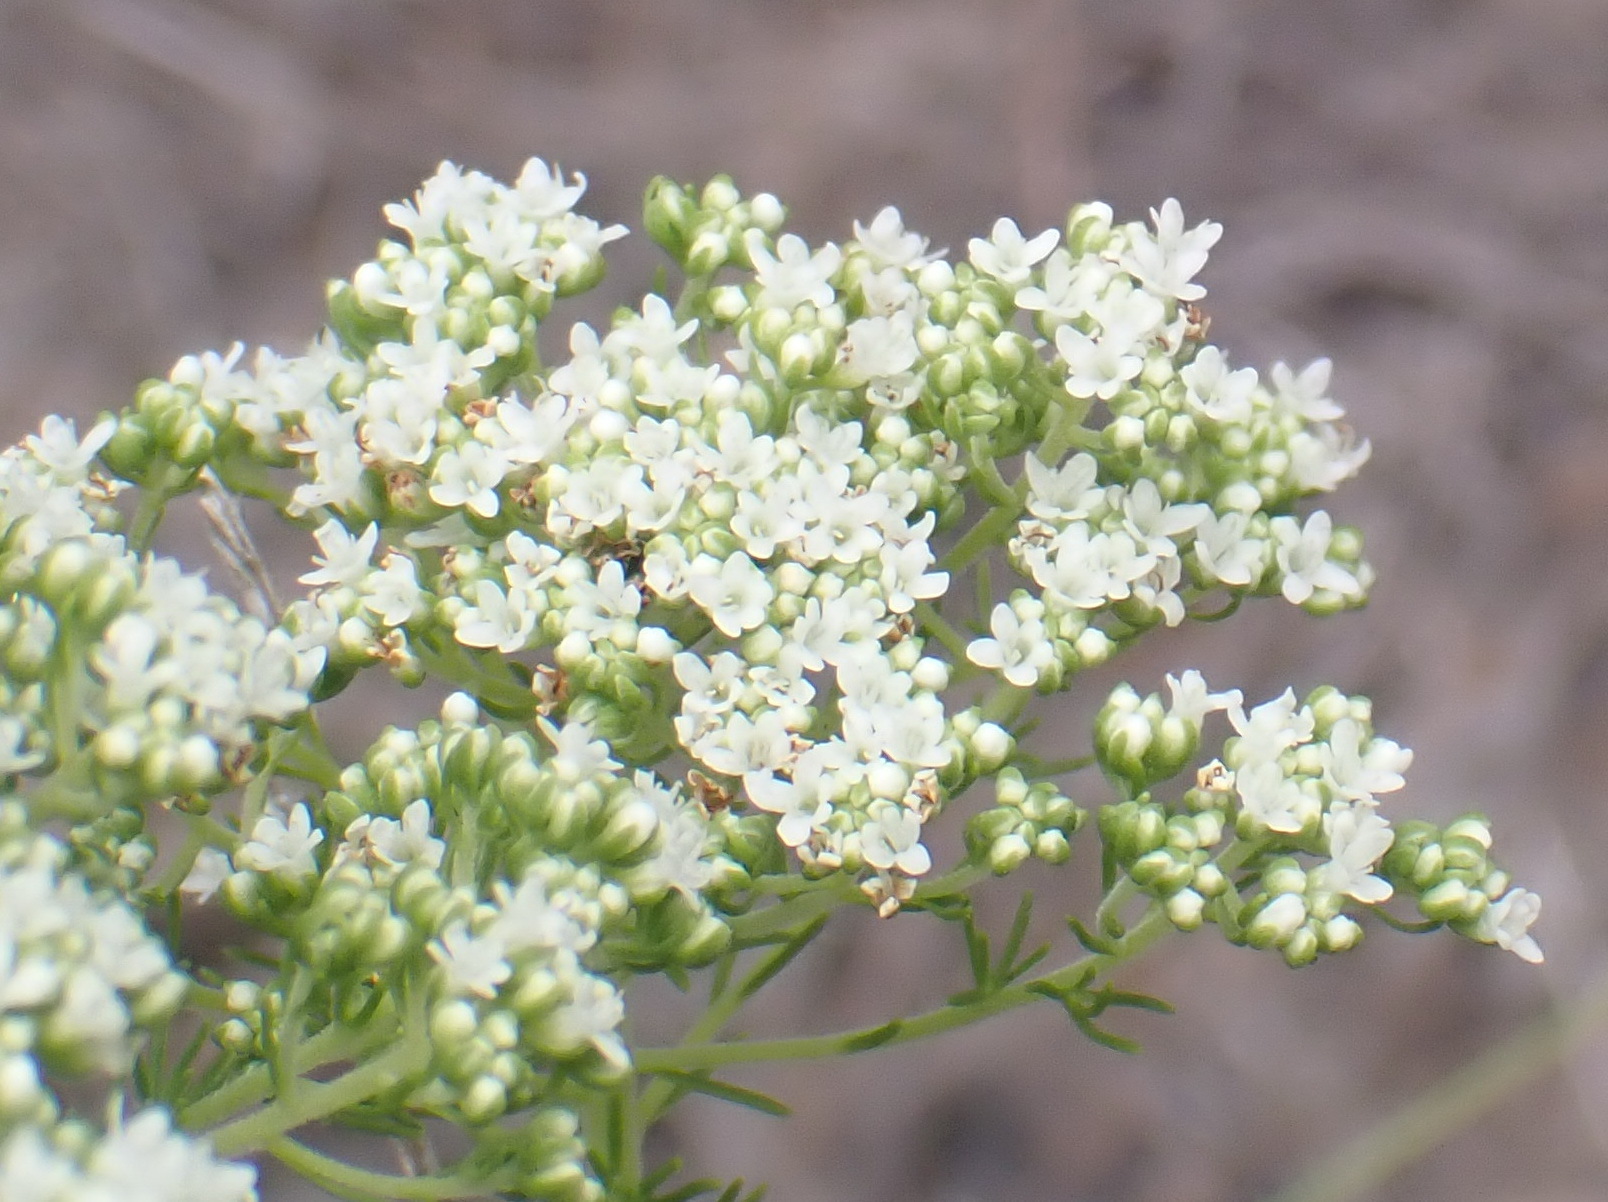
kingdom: Plantae
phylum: Tracheophyta
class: Magnoliopsida
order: Lamiales
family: Scrophulariaceae
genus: Selago
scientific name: Selago corymbosa
